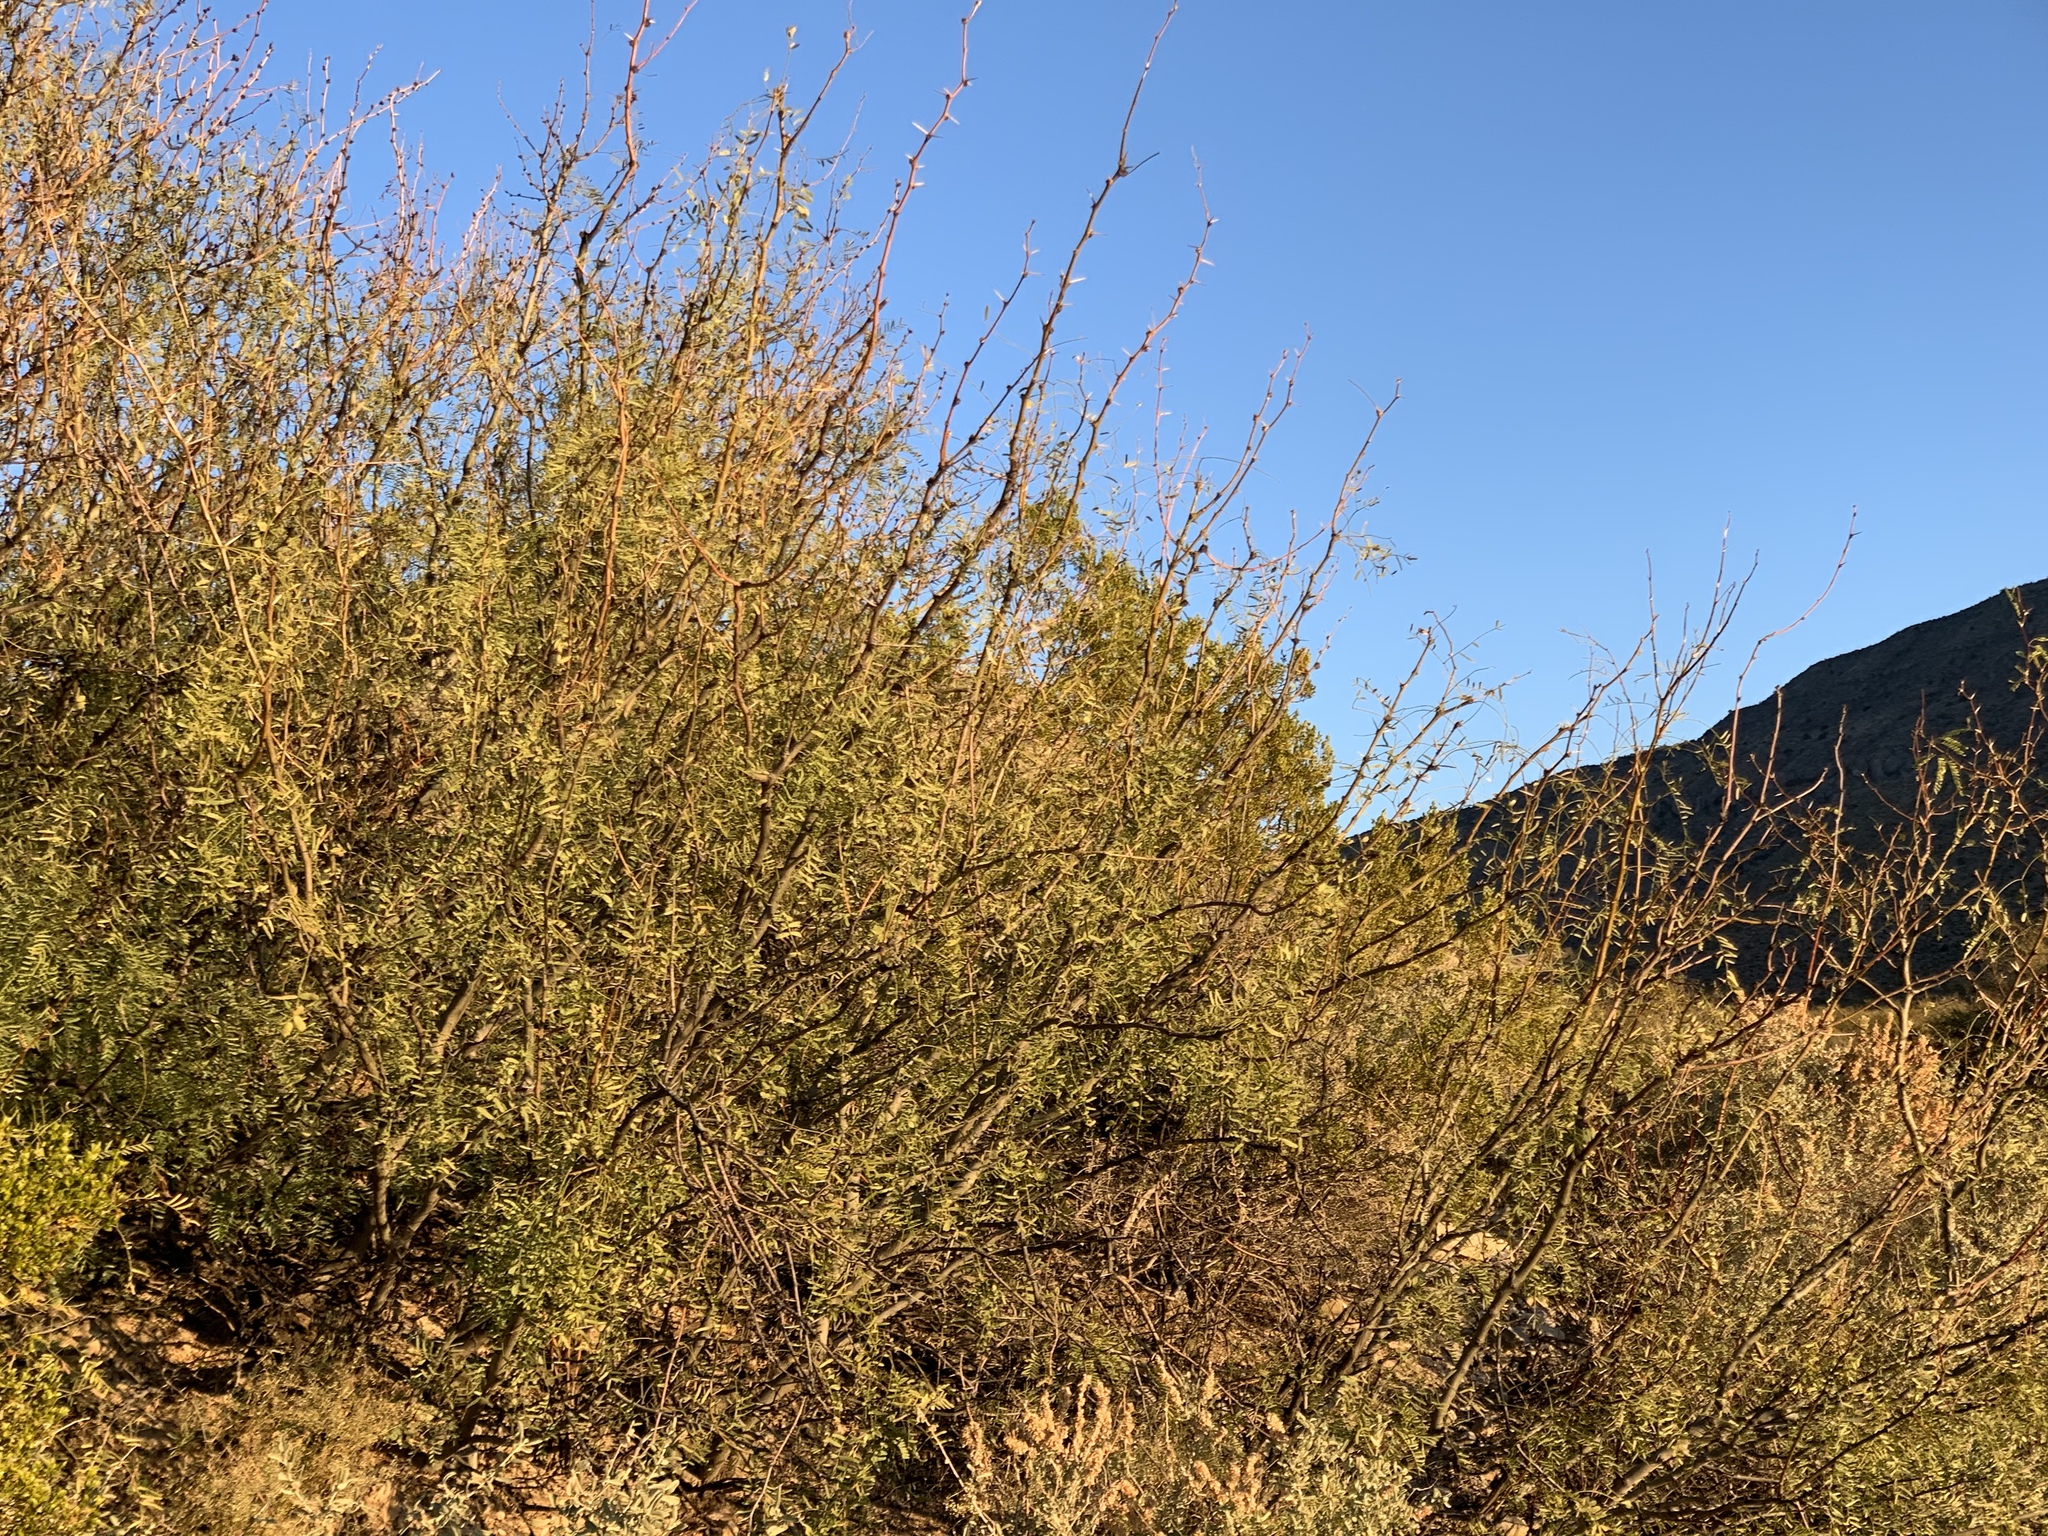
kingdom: Plantae
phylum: Tracheophyta
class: Magnoliopsida
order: Fabales
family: Fabaceae
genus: Prosopis
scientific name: Prosopis glandulosa
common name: Honey mesquite
